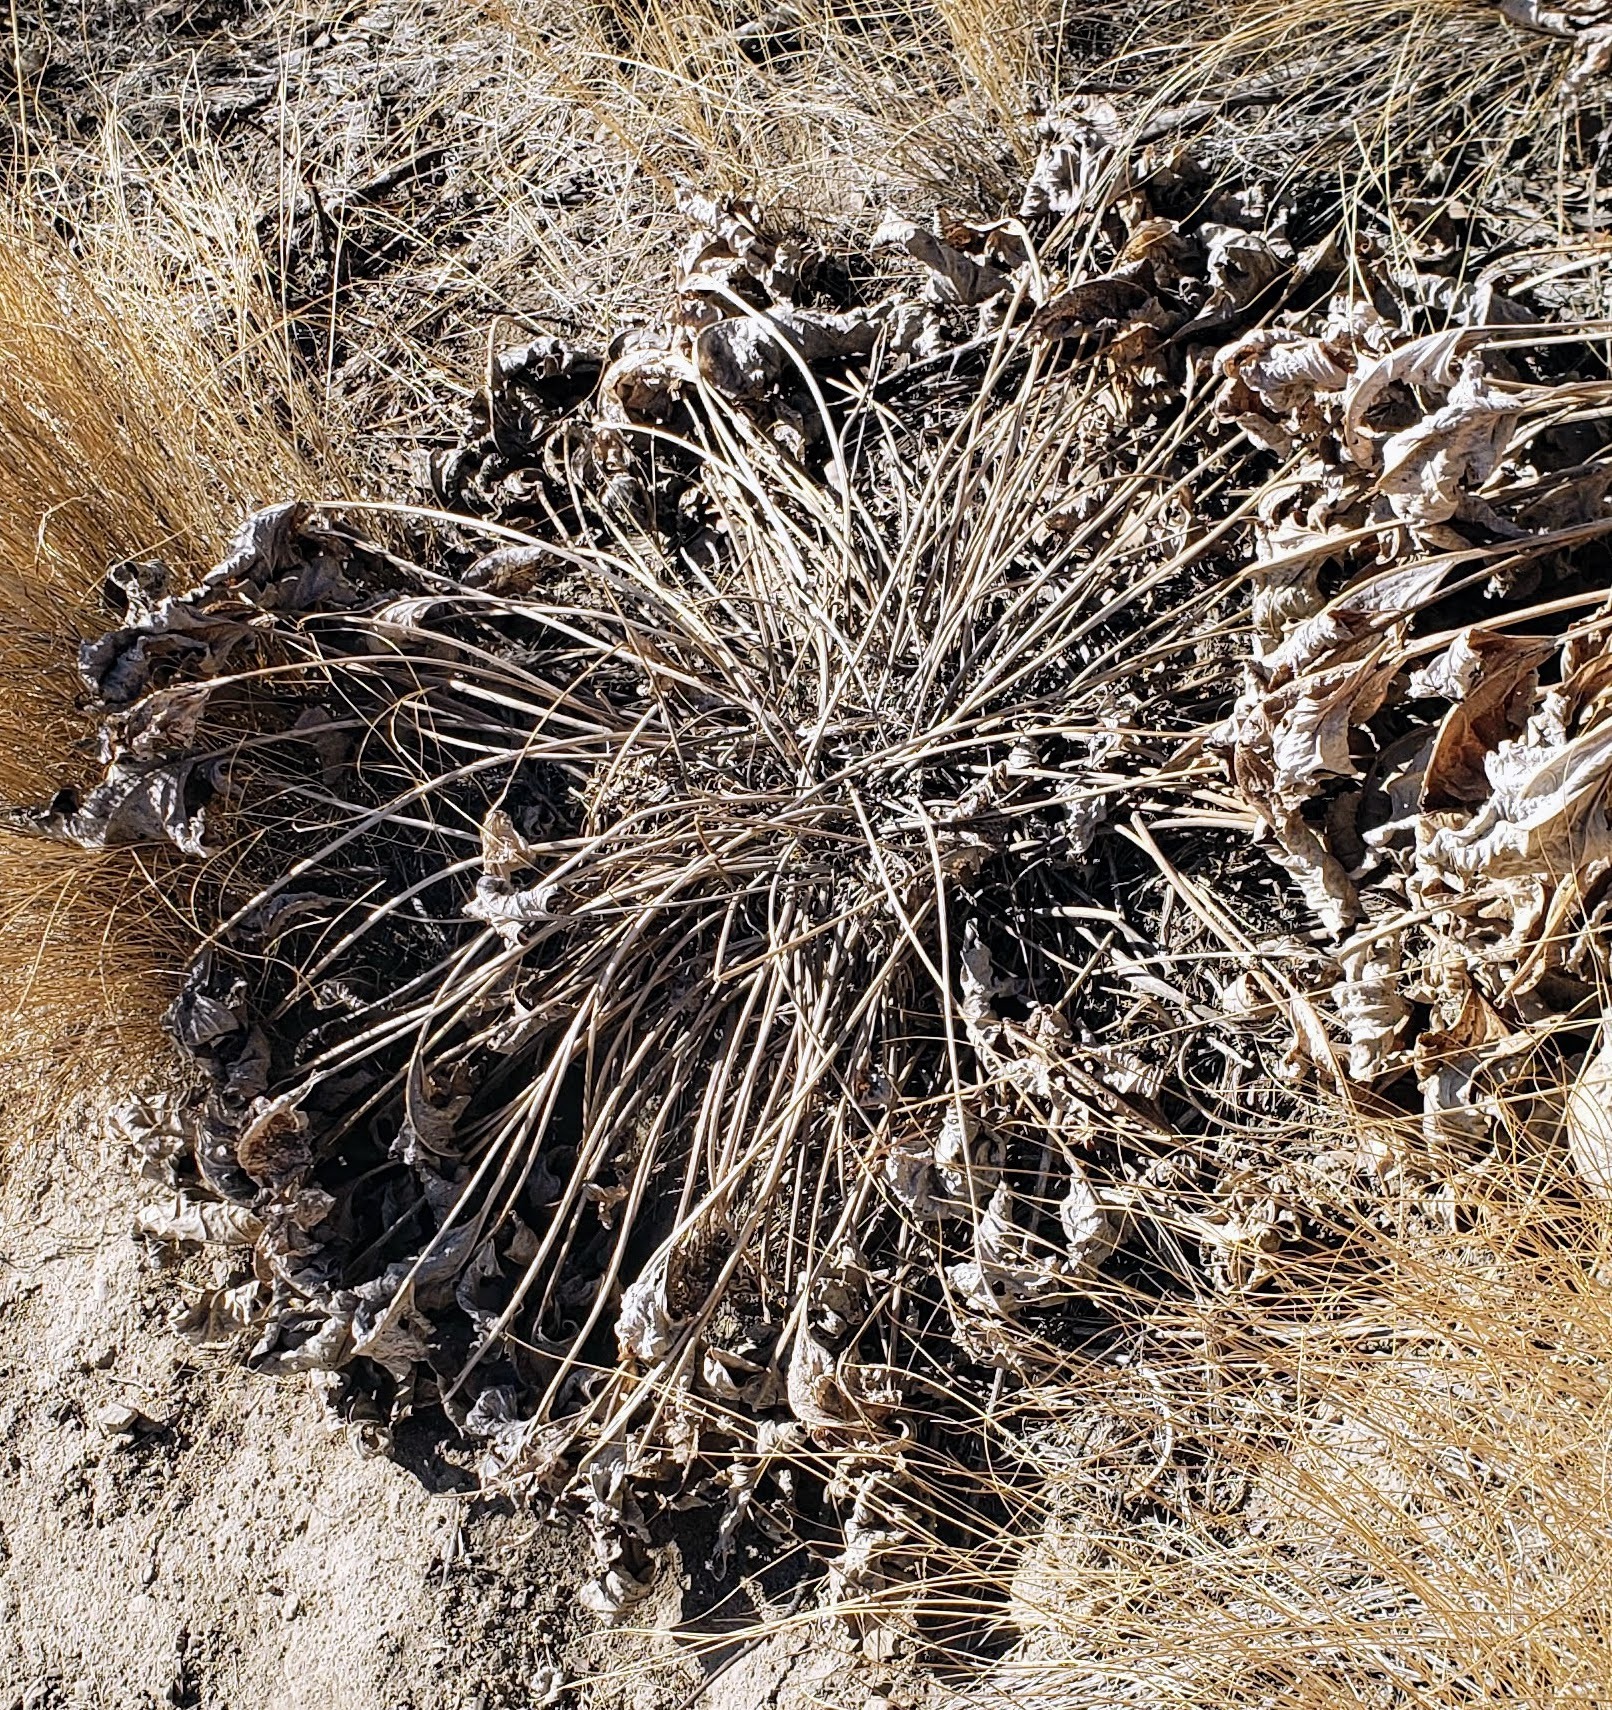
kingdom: Plantae
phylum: Tracheophyta
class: Magnoliopsida
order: Asterales
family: Asteraceae
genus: Wyethia
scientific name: Wyethia sagittata
